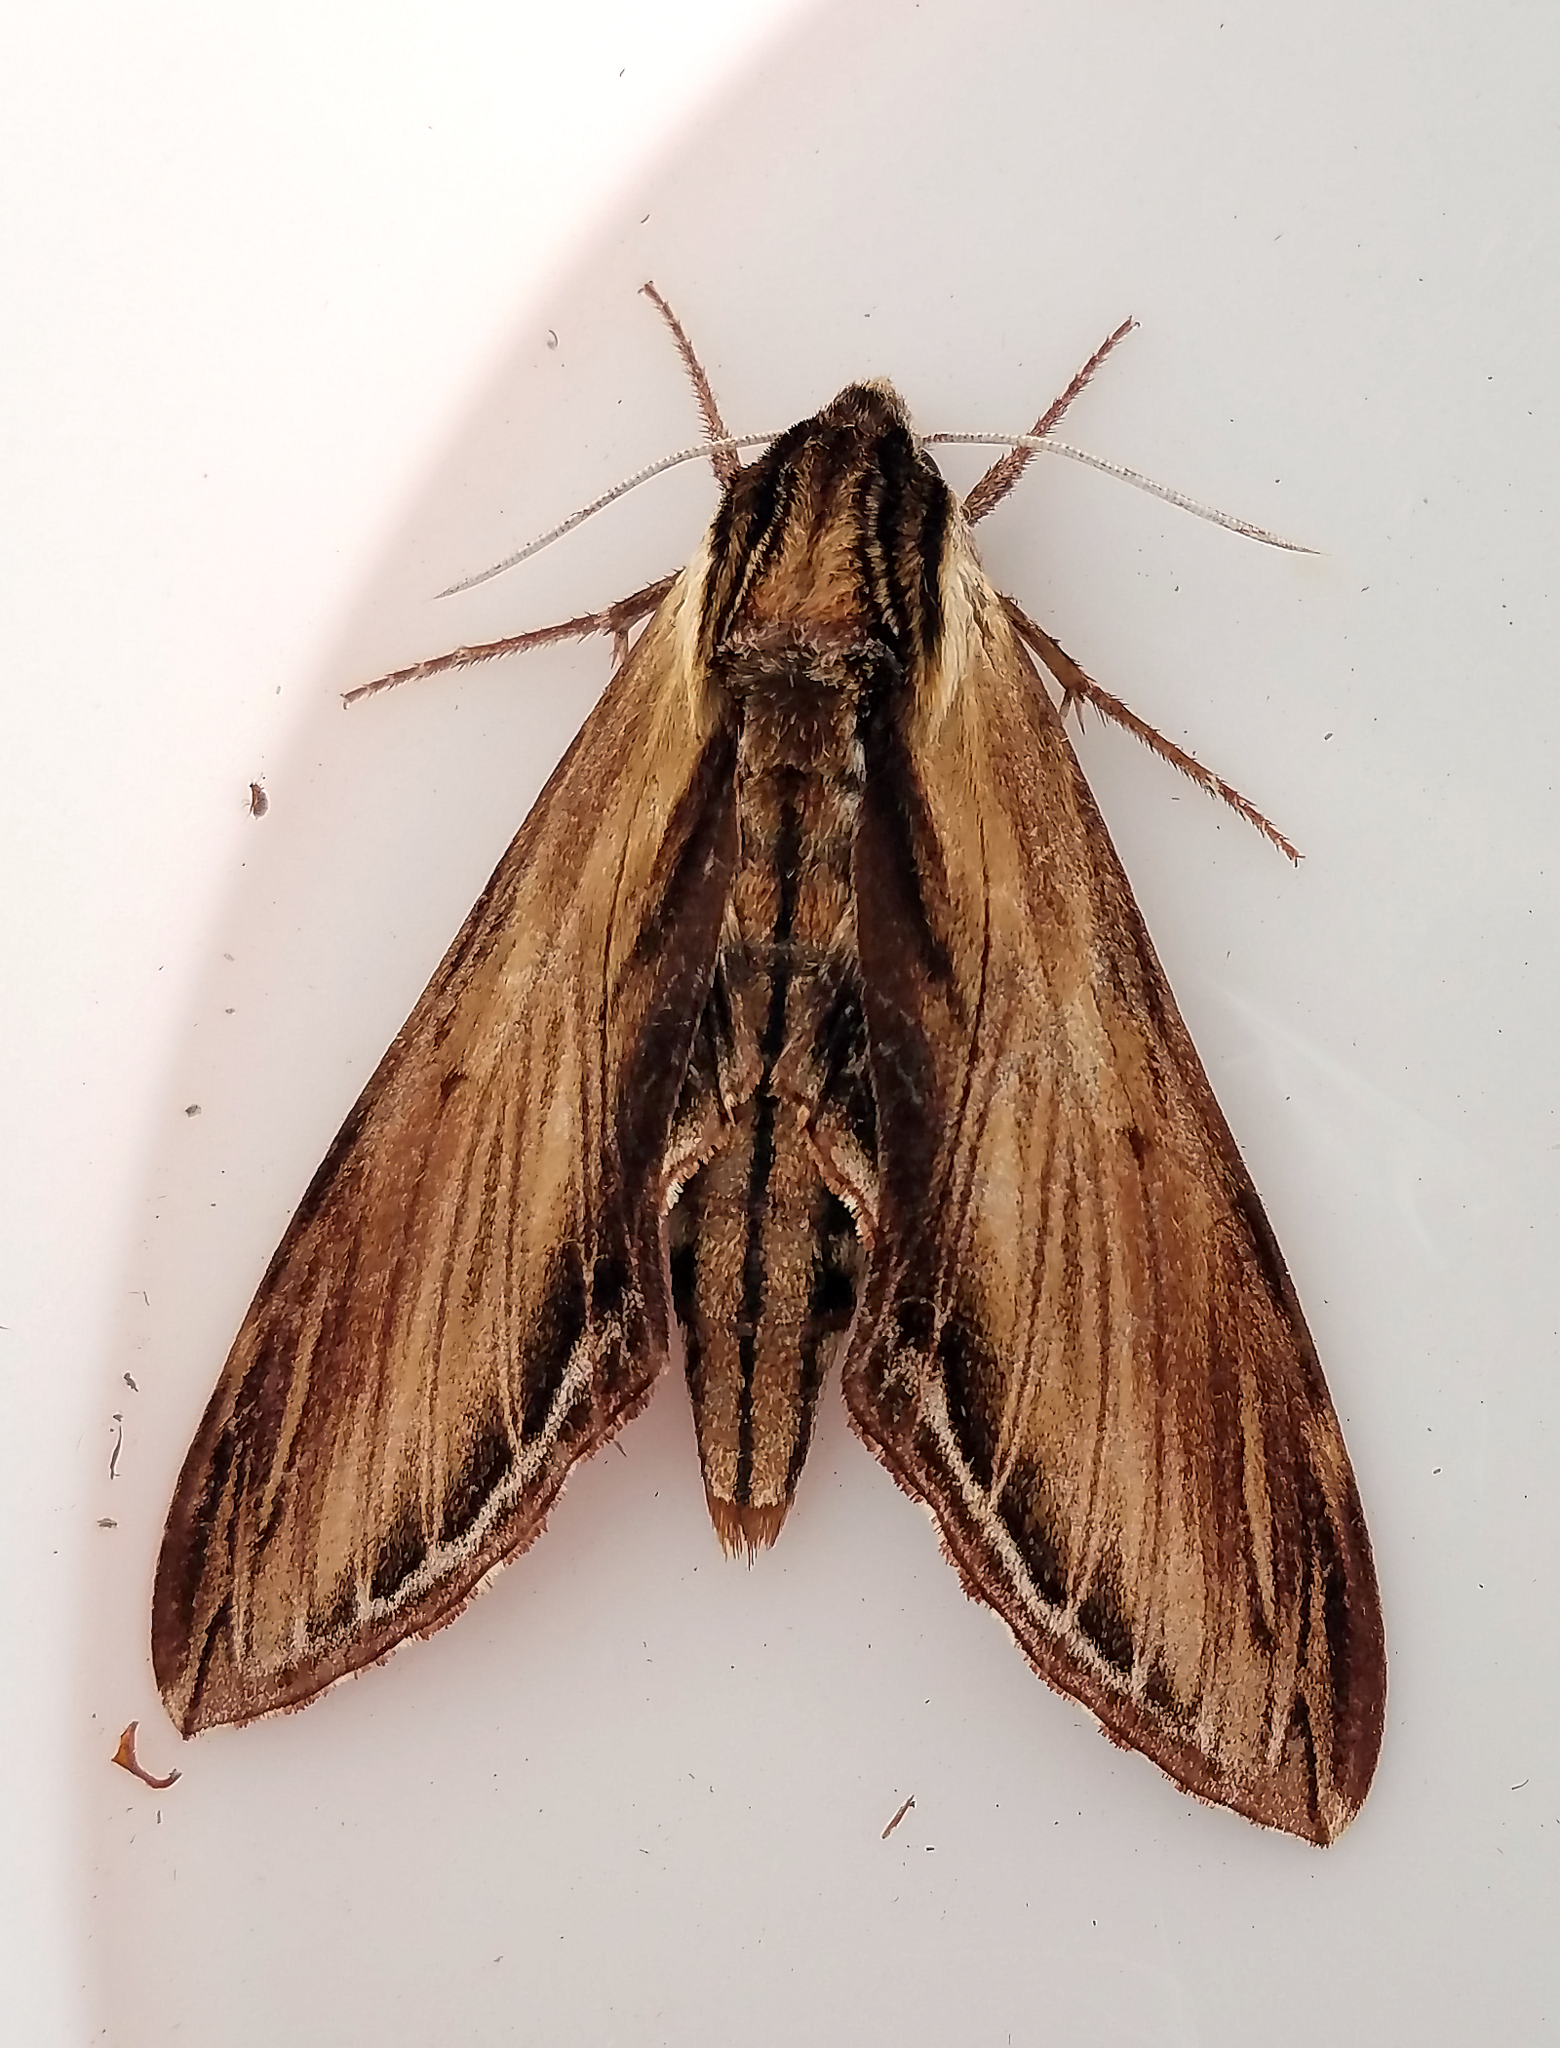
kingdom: Animalia
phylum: Arthropoda
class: Insecta
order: Lepidoptera
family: Sphingidae
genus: Sphinx
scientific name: Sphinx kalmiae
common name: Laurel sphinx
